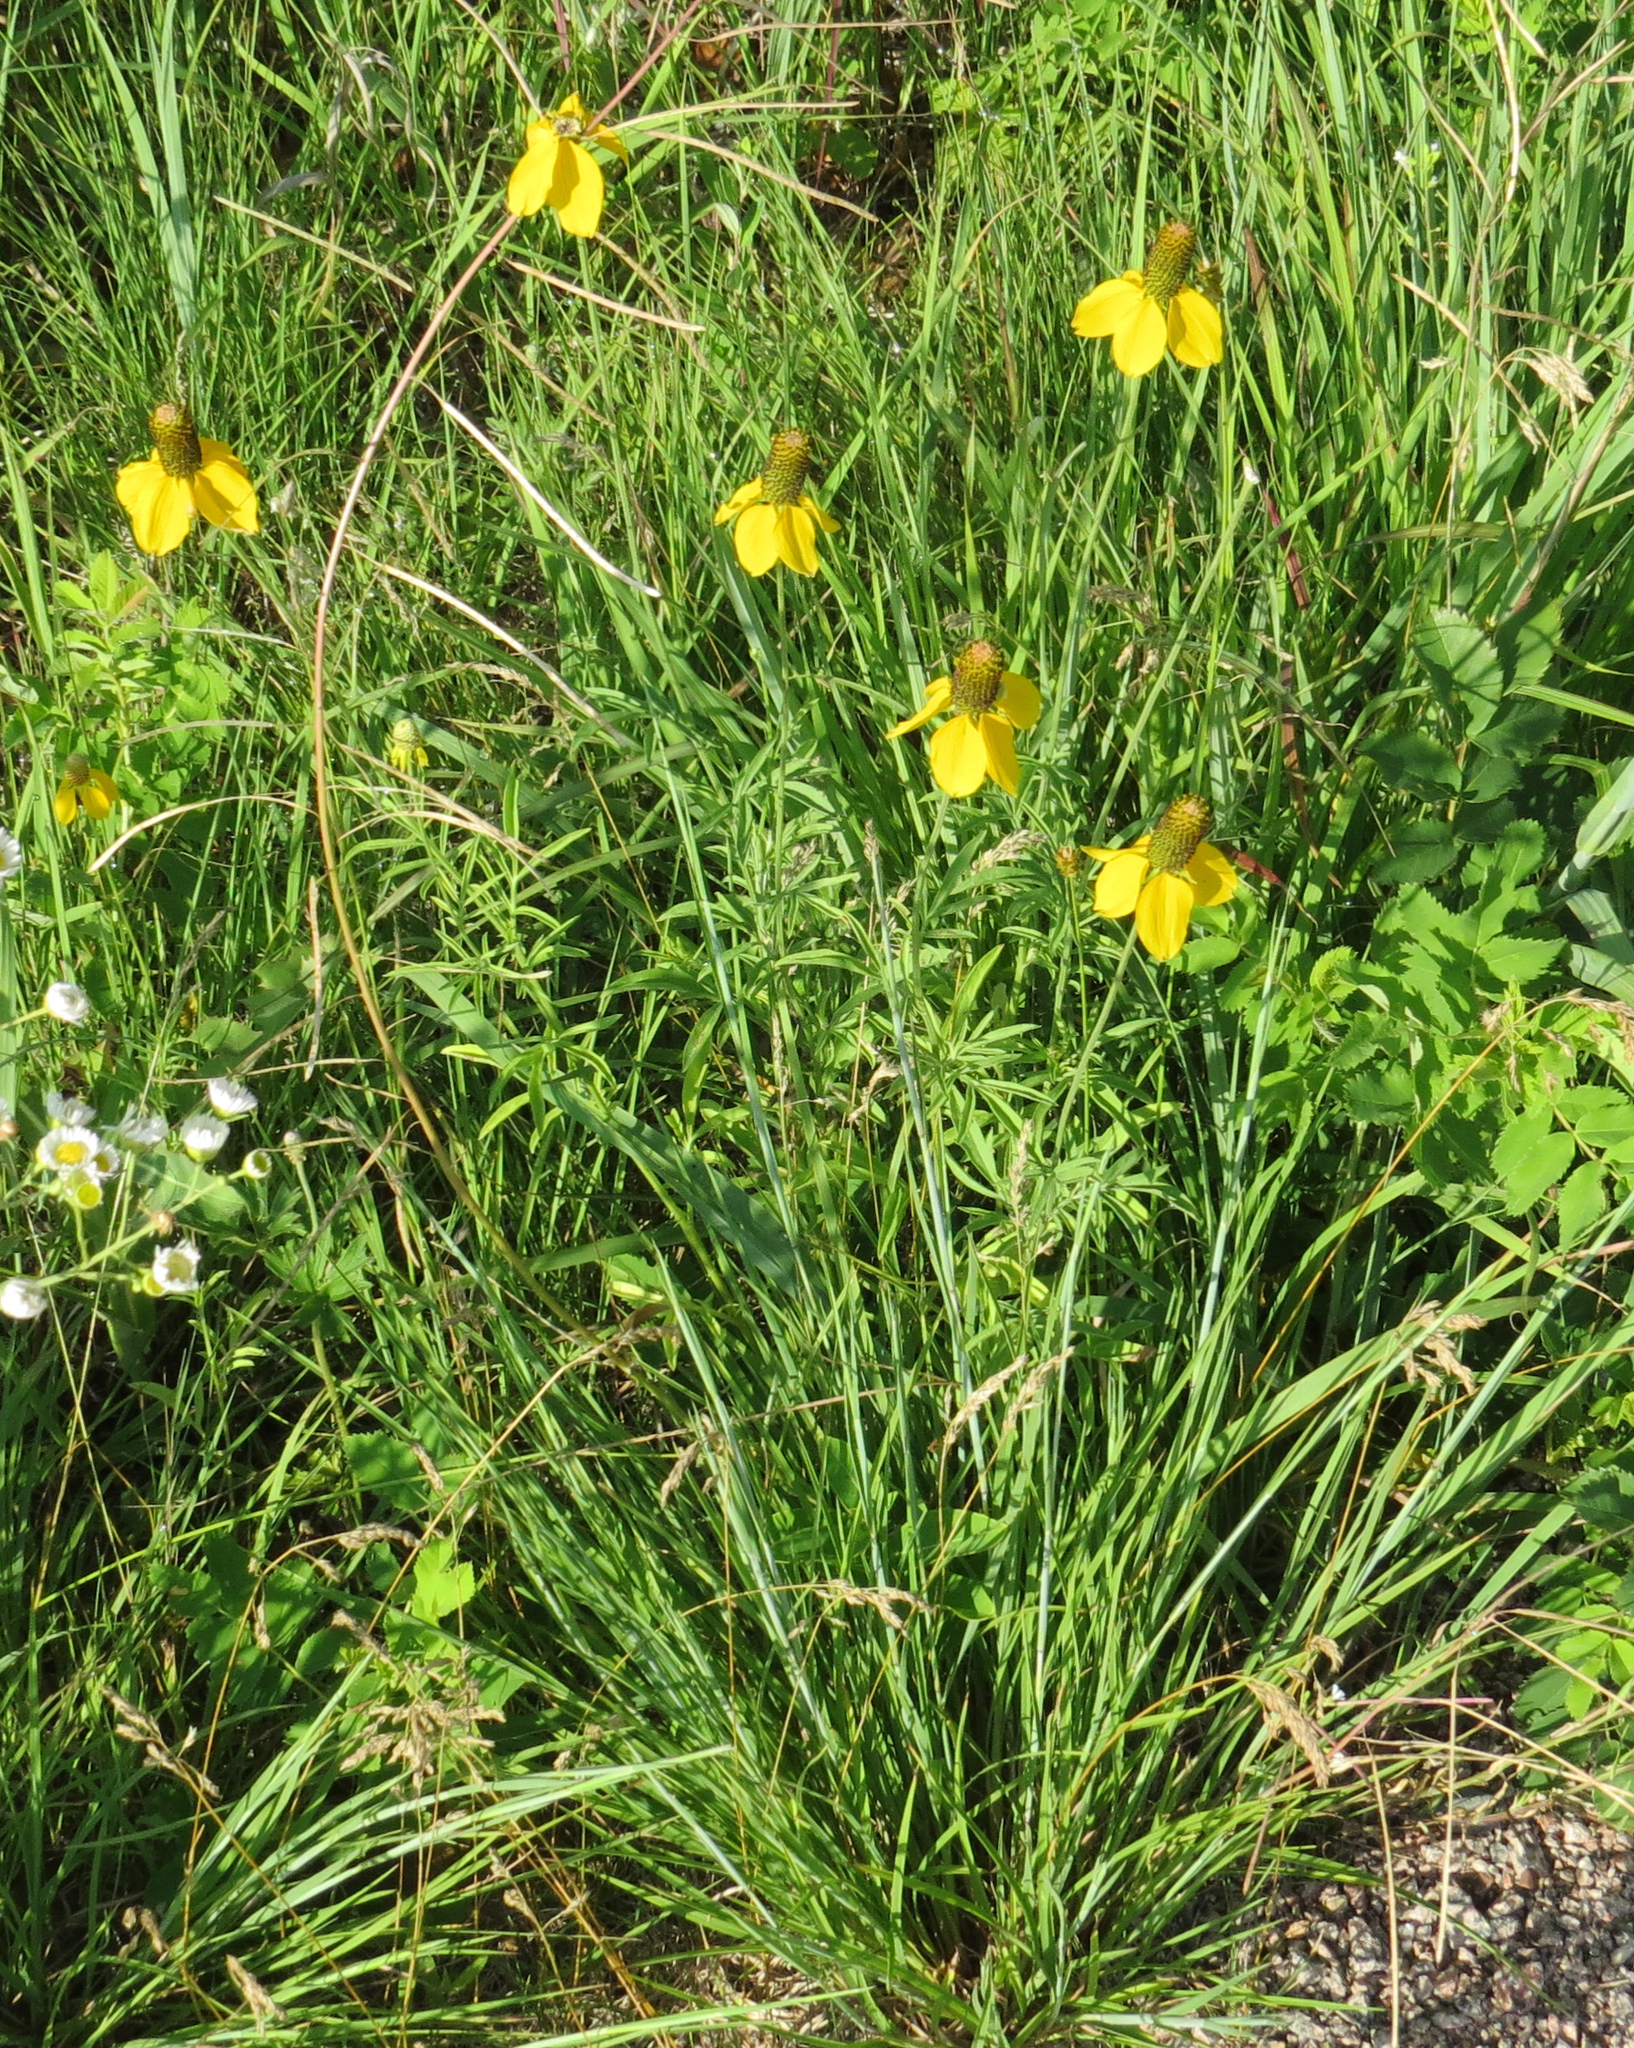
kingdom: Plantae
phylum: Tracheophyta
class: Magnoliopsida
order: Asterales
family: Asteraceae
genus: Ratibida
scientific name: Ratibida columnifera
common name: Prairie coneflower
